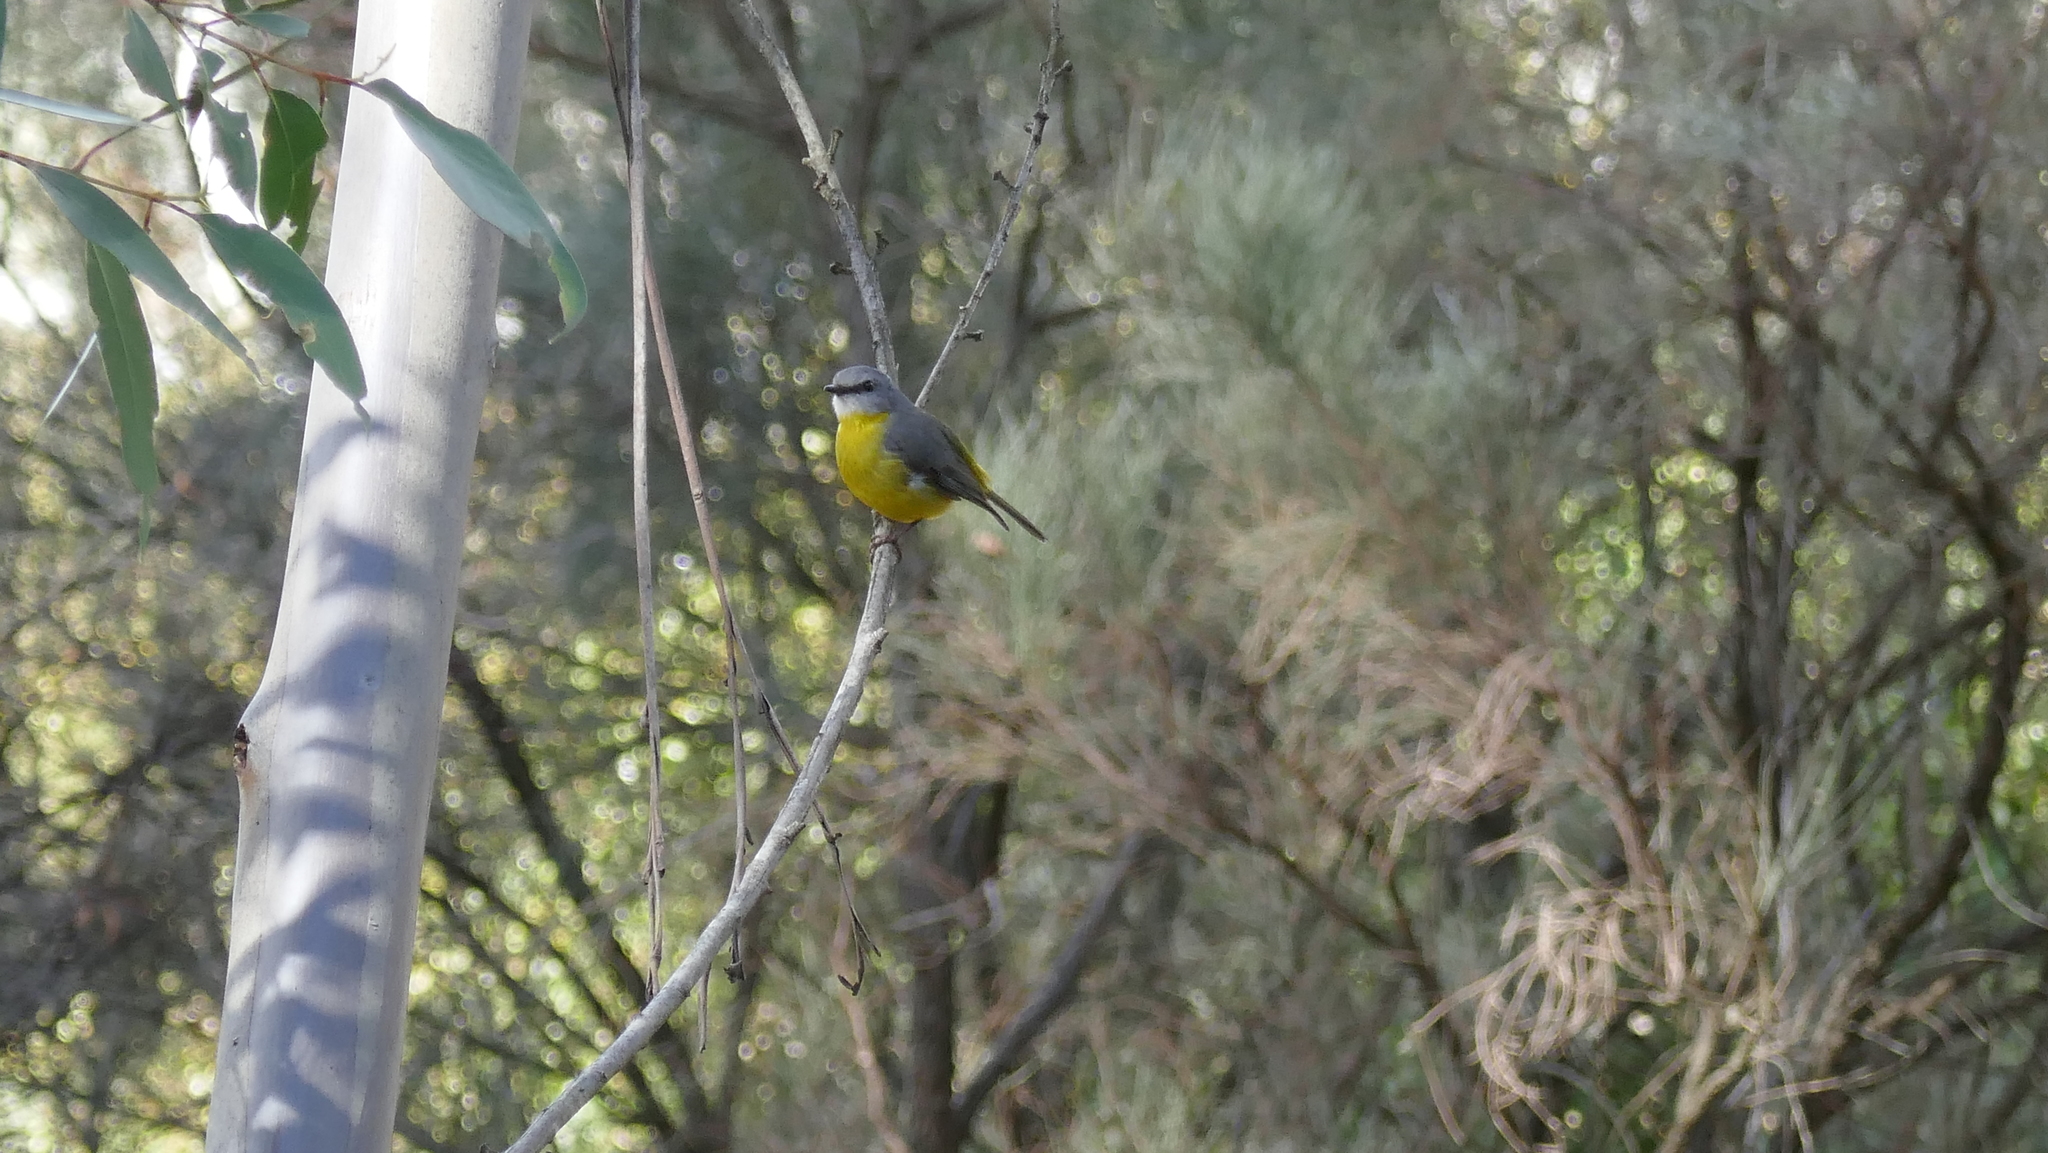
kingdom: Animalia
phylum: Chordata
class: Aves
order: Passeriformes
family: Petroicidae
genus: Eopsaltria
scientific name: Eopsaltria australis
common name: Eastern yellow robin
